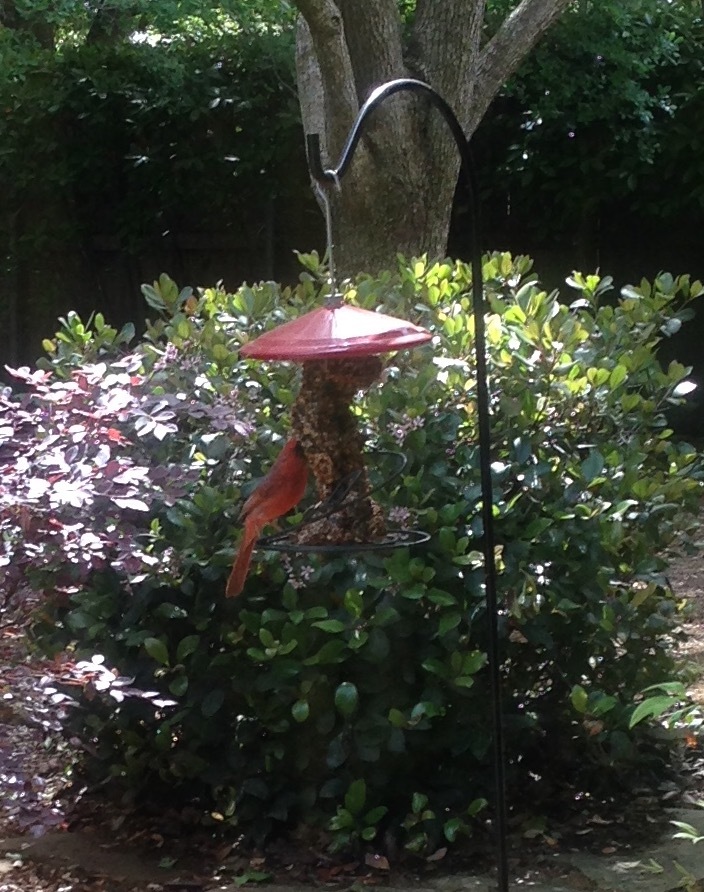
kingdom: Animalia
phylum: Chordata
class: Aves
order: Passeriformes
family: Cardinalidae
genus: Cardinalis
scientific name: Cardinalis cardinalis
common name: Northern cardinal
